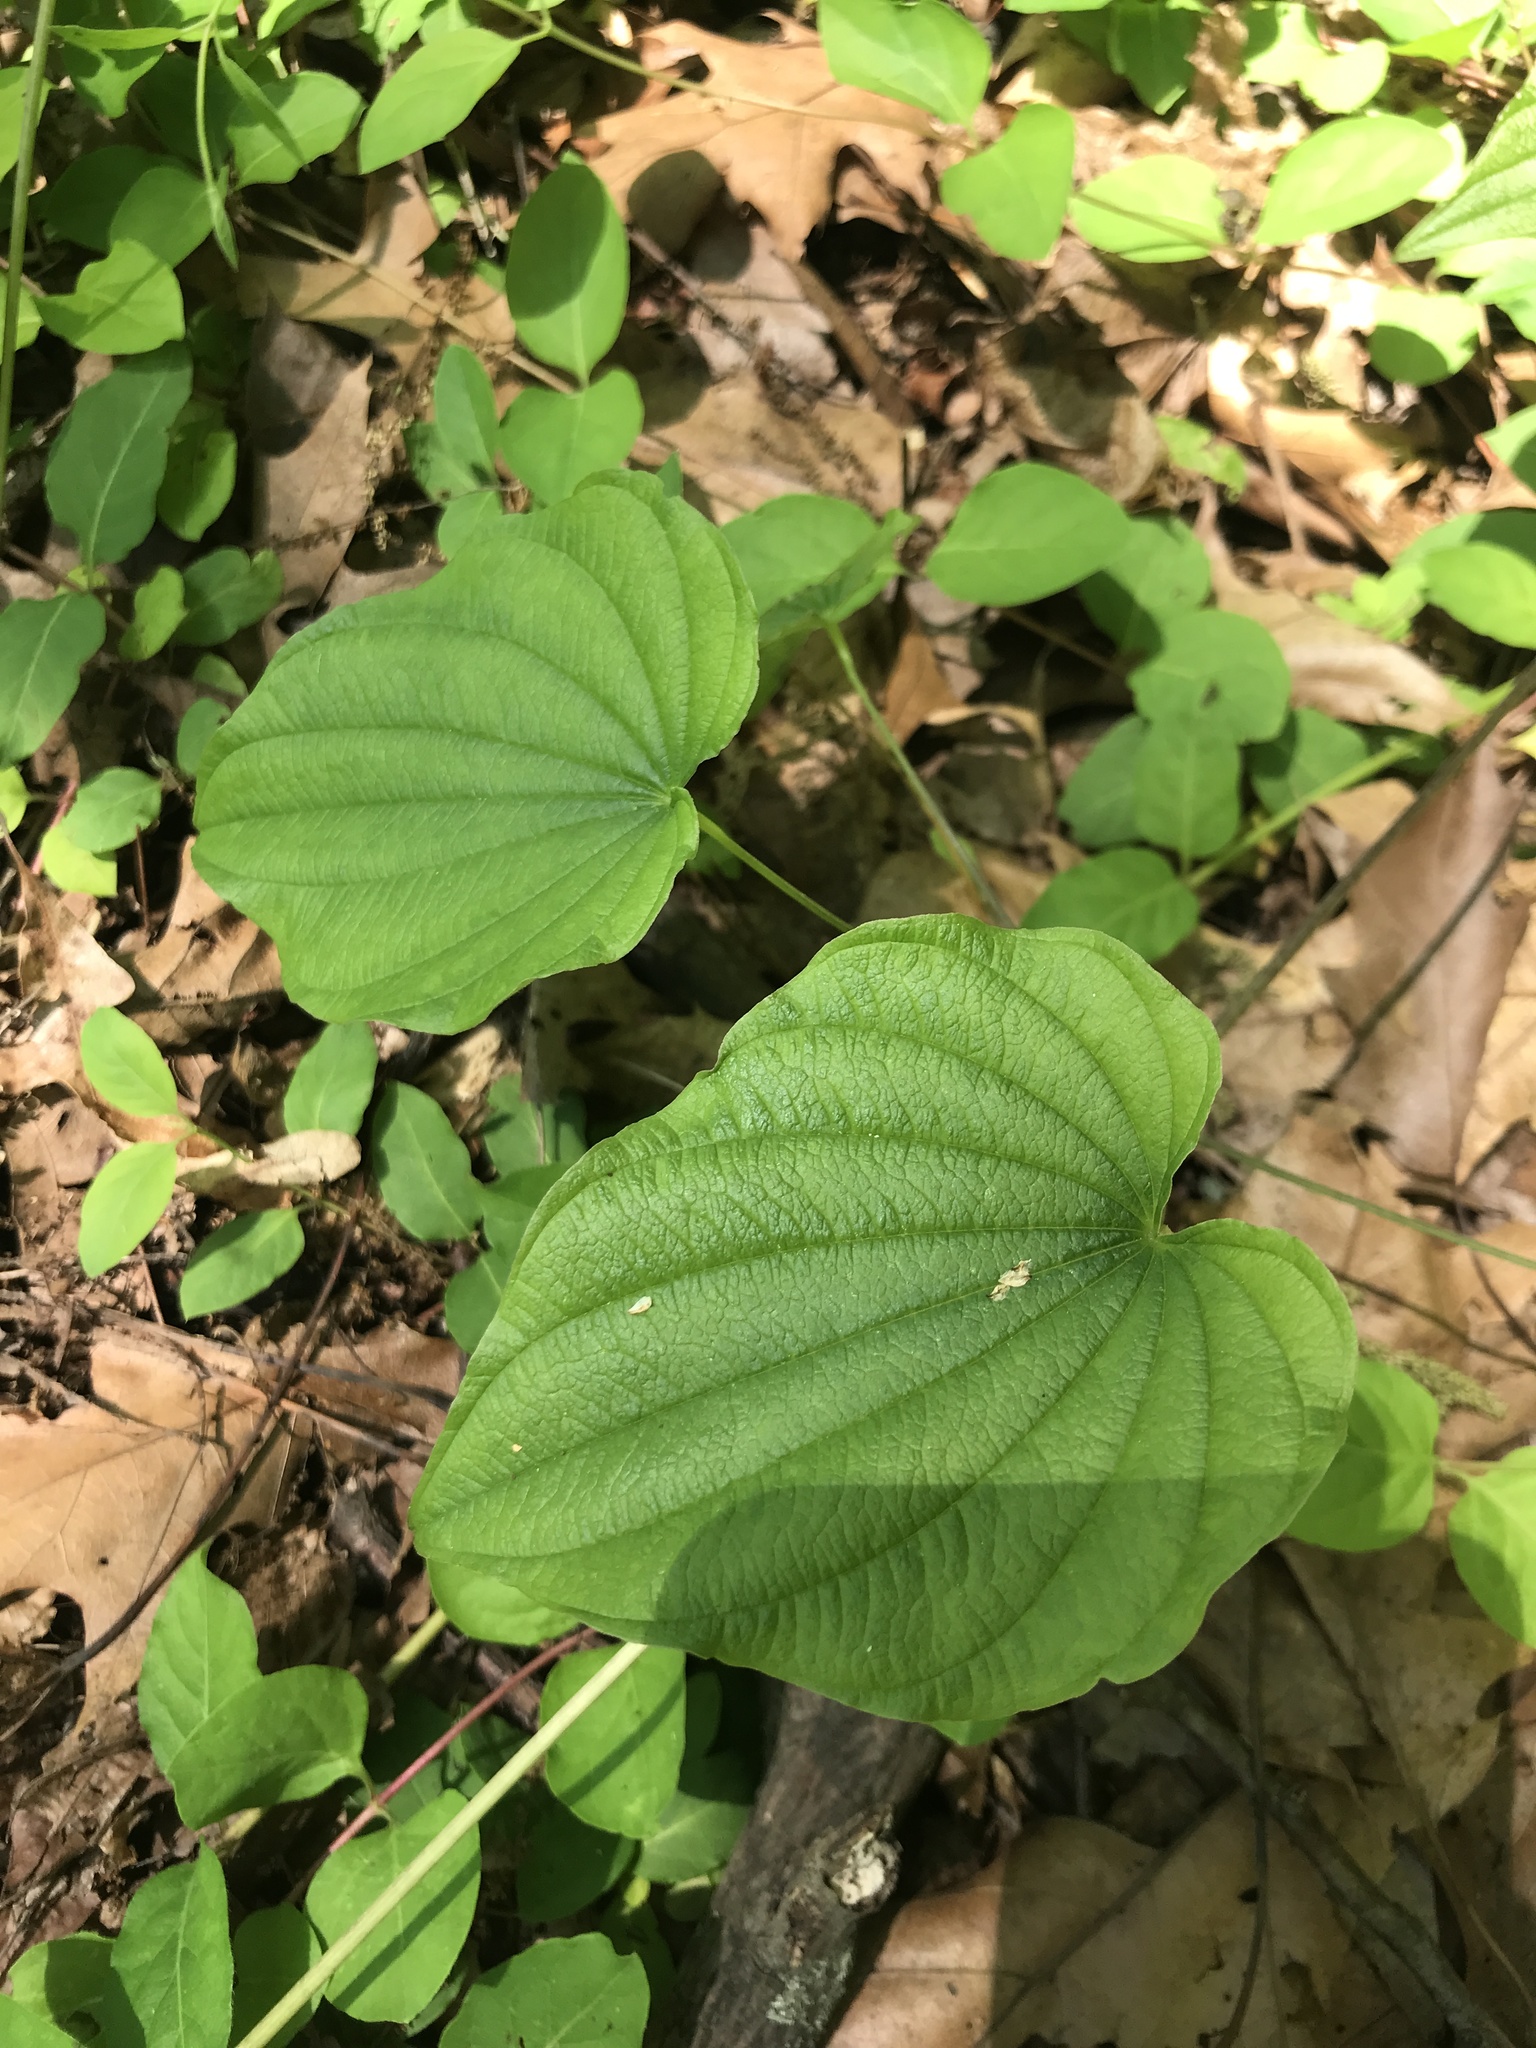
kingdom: Plantae
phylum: Tracheophyta
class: Liliopsida
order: Dioscoreales
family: Dioscoreaceae
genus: Dioscorea
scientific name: Dioscorea villosa
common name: Wild yam
